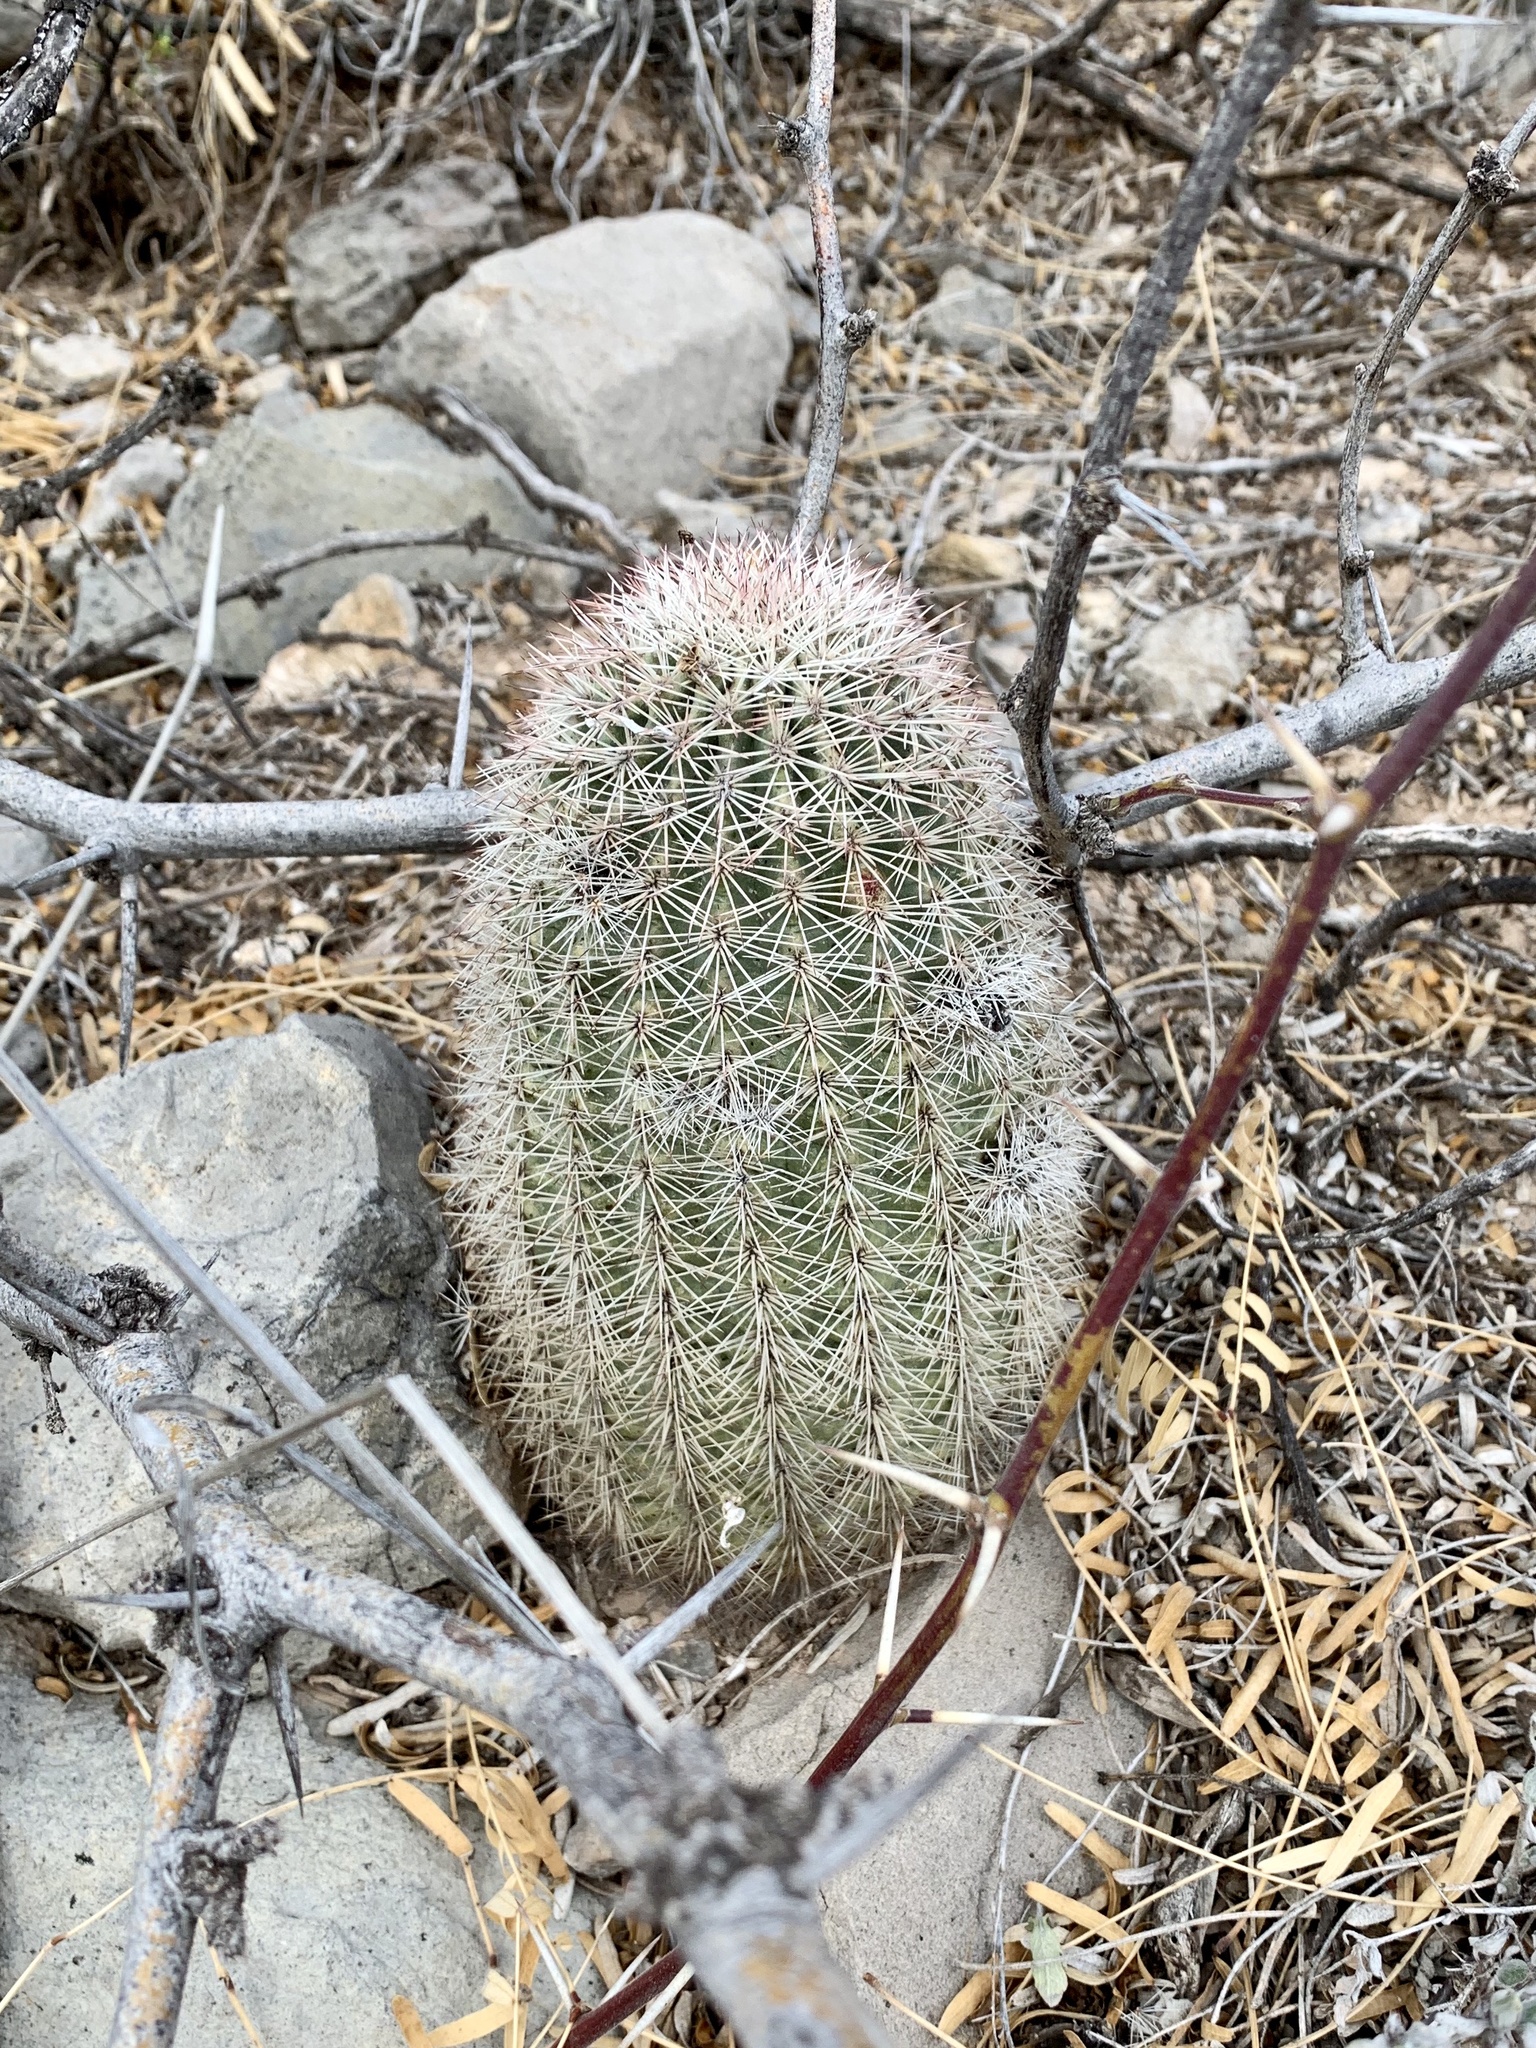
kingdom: Plantae
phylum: Tracheophyta
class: Magnoliopsida
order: Caryophyllales
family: Cactaceae
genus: Echinocereus
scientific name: Echinocereus dasyacanthus
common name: Spiny hedgehog cactus
